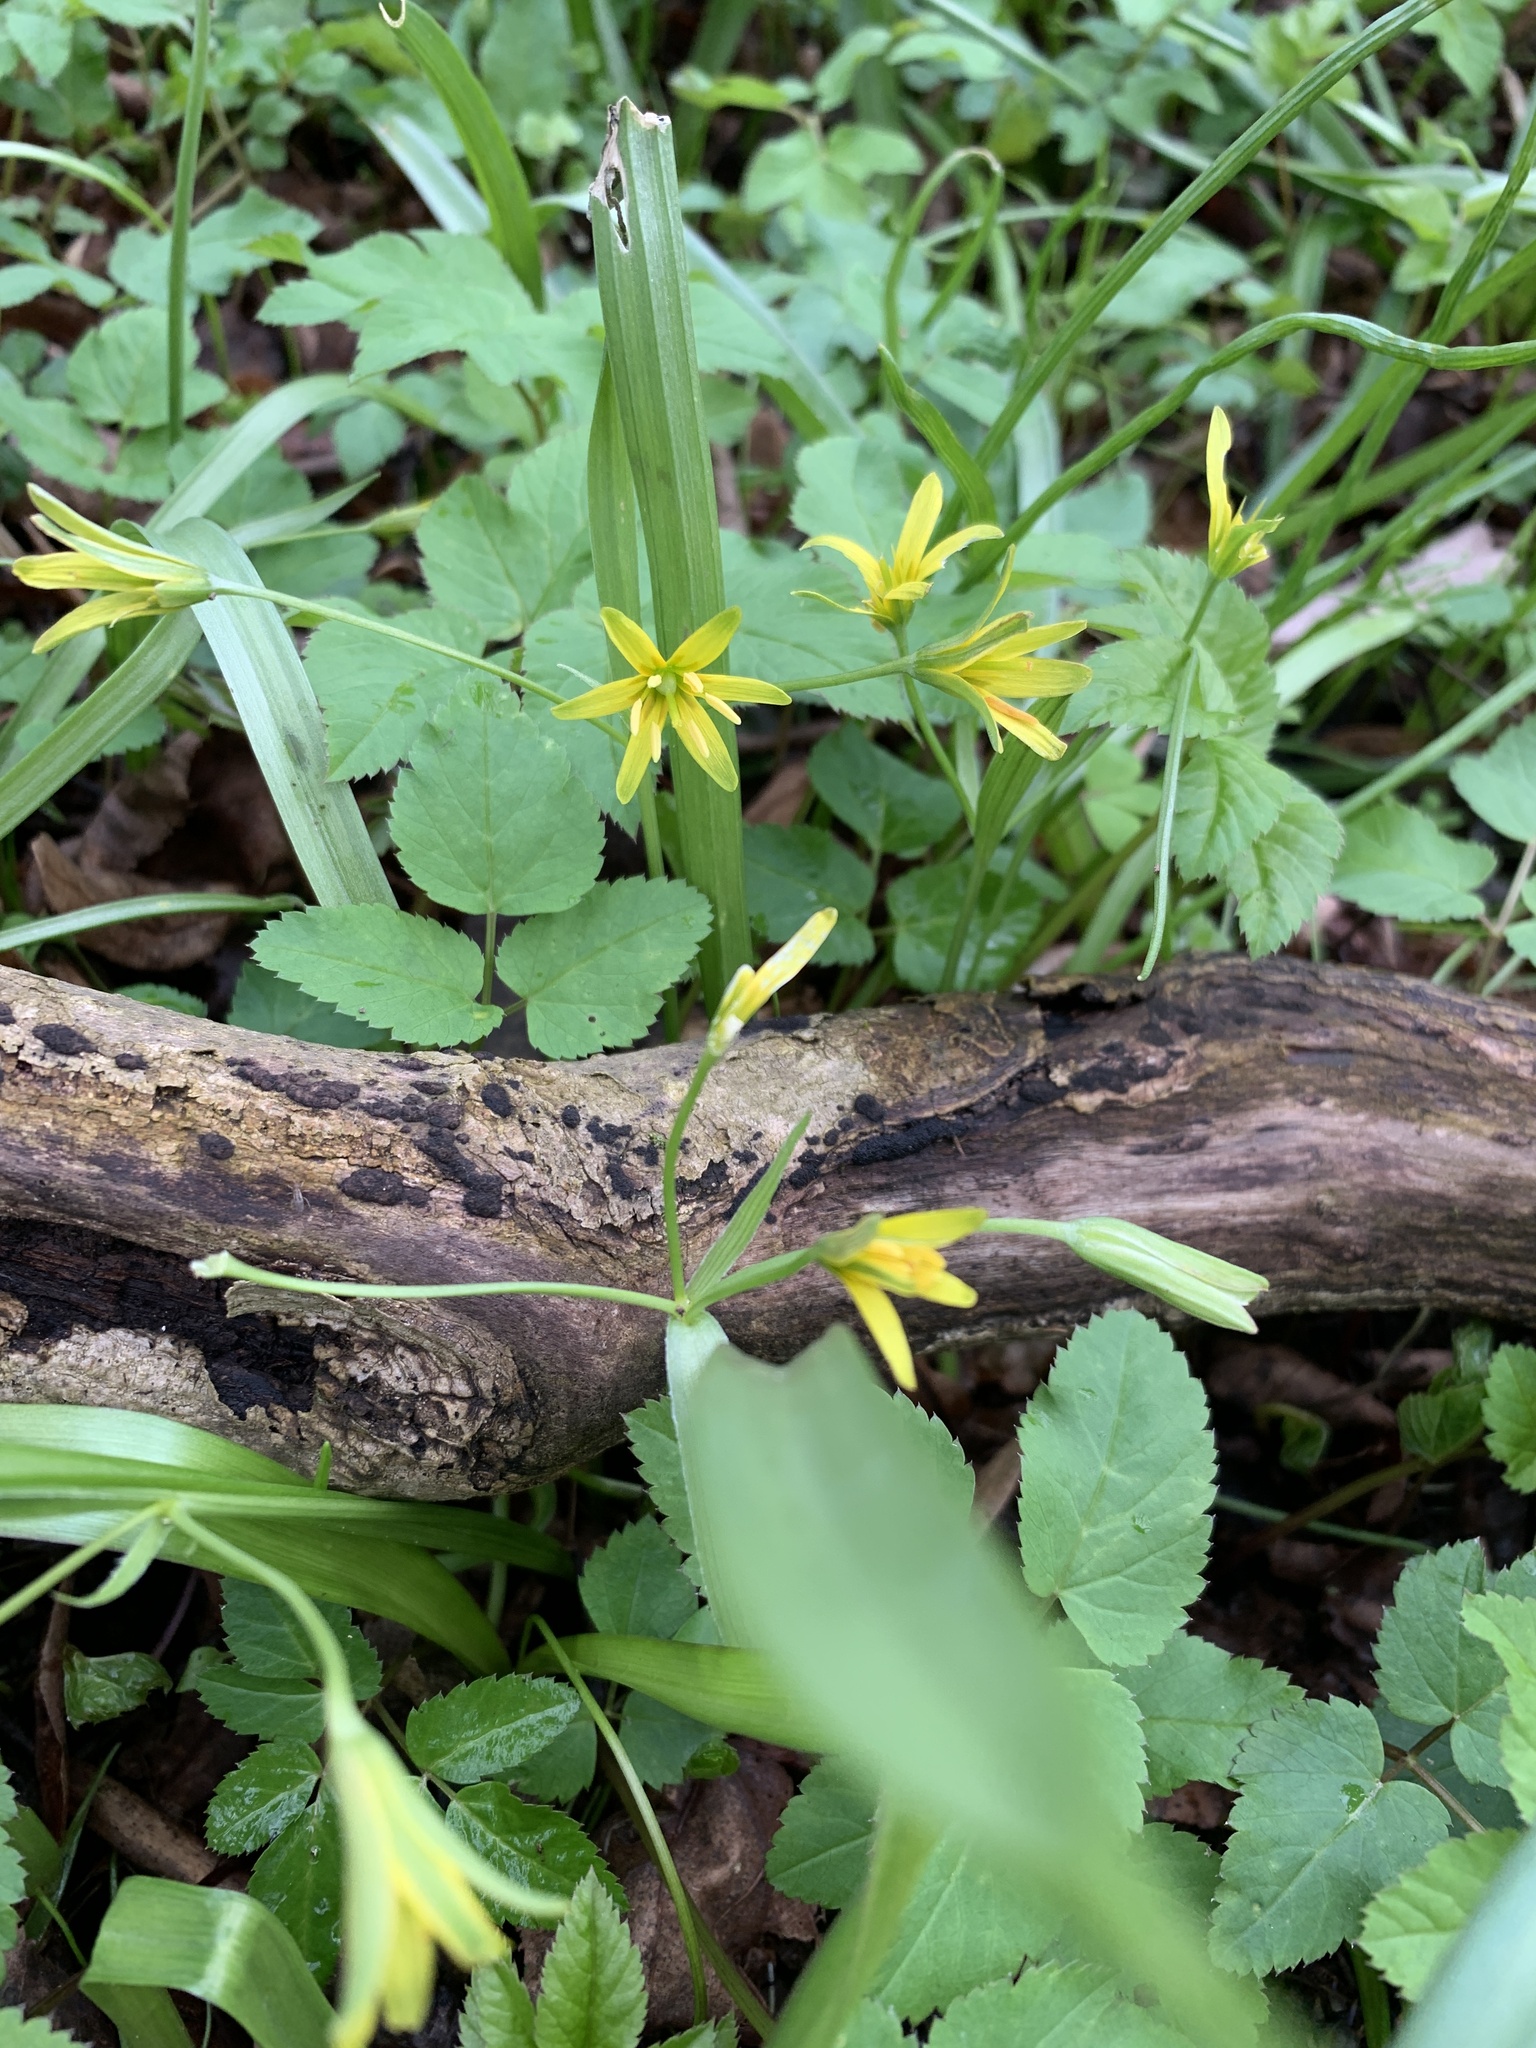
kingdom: Plantae
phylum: Tracheophyta
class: Liliopsida
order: Liliales
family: Liliaceae
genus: Gagea
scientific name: Gagea lutea
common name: Yellow star-of-bethlehem
